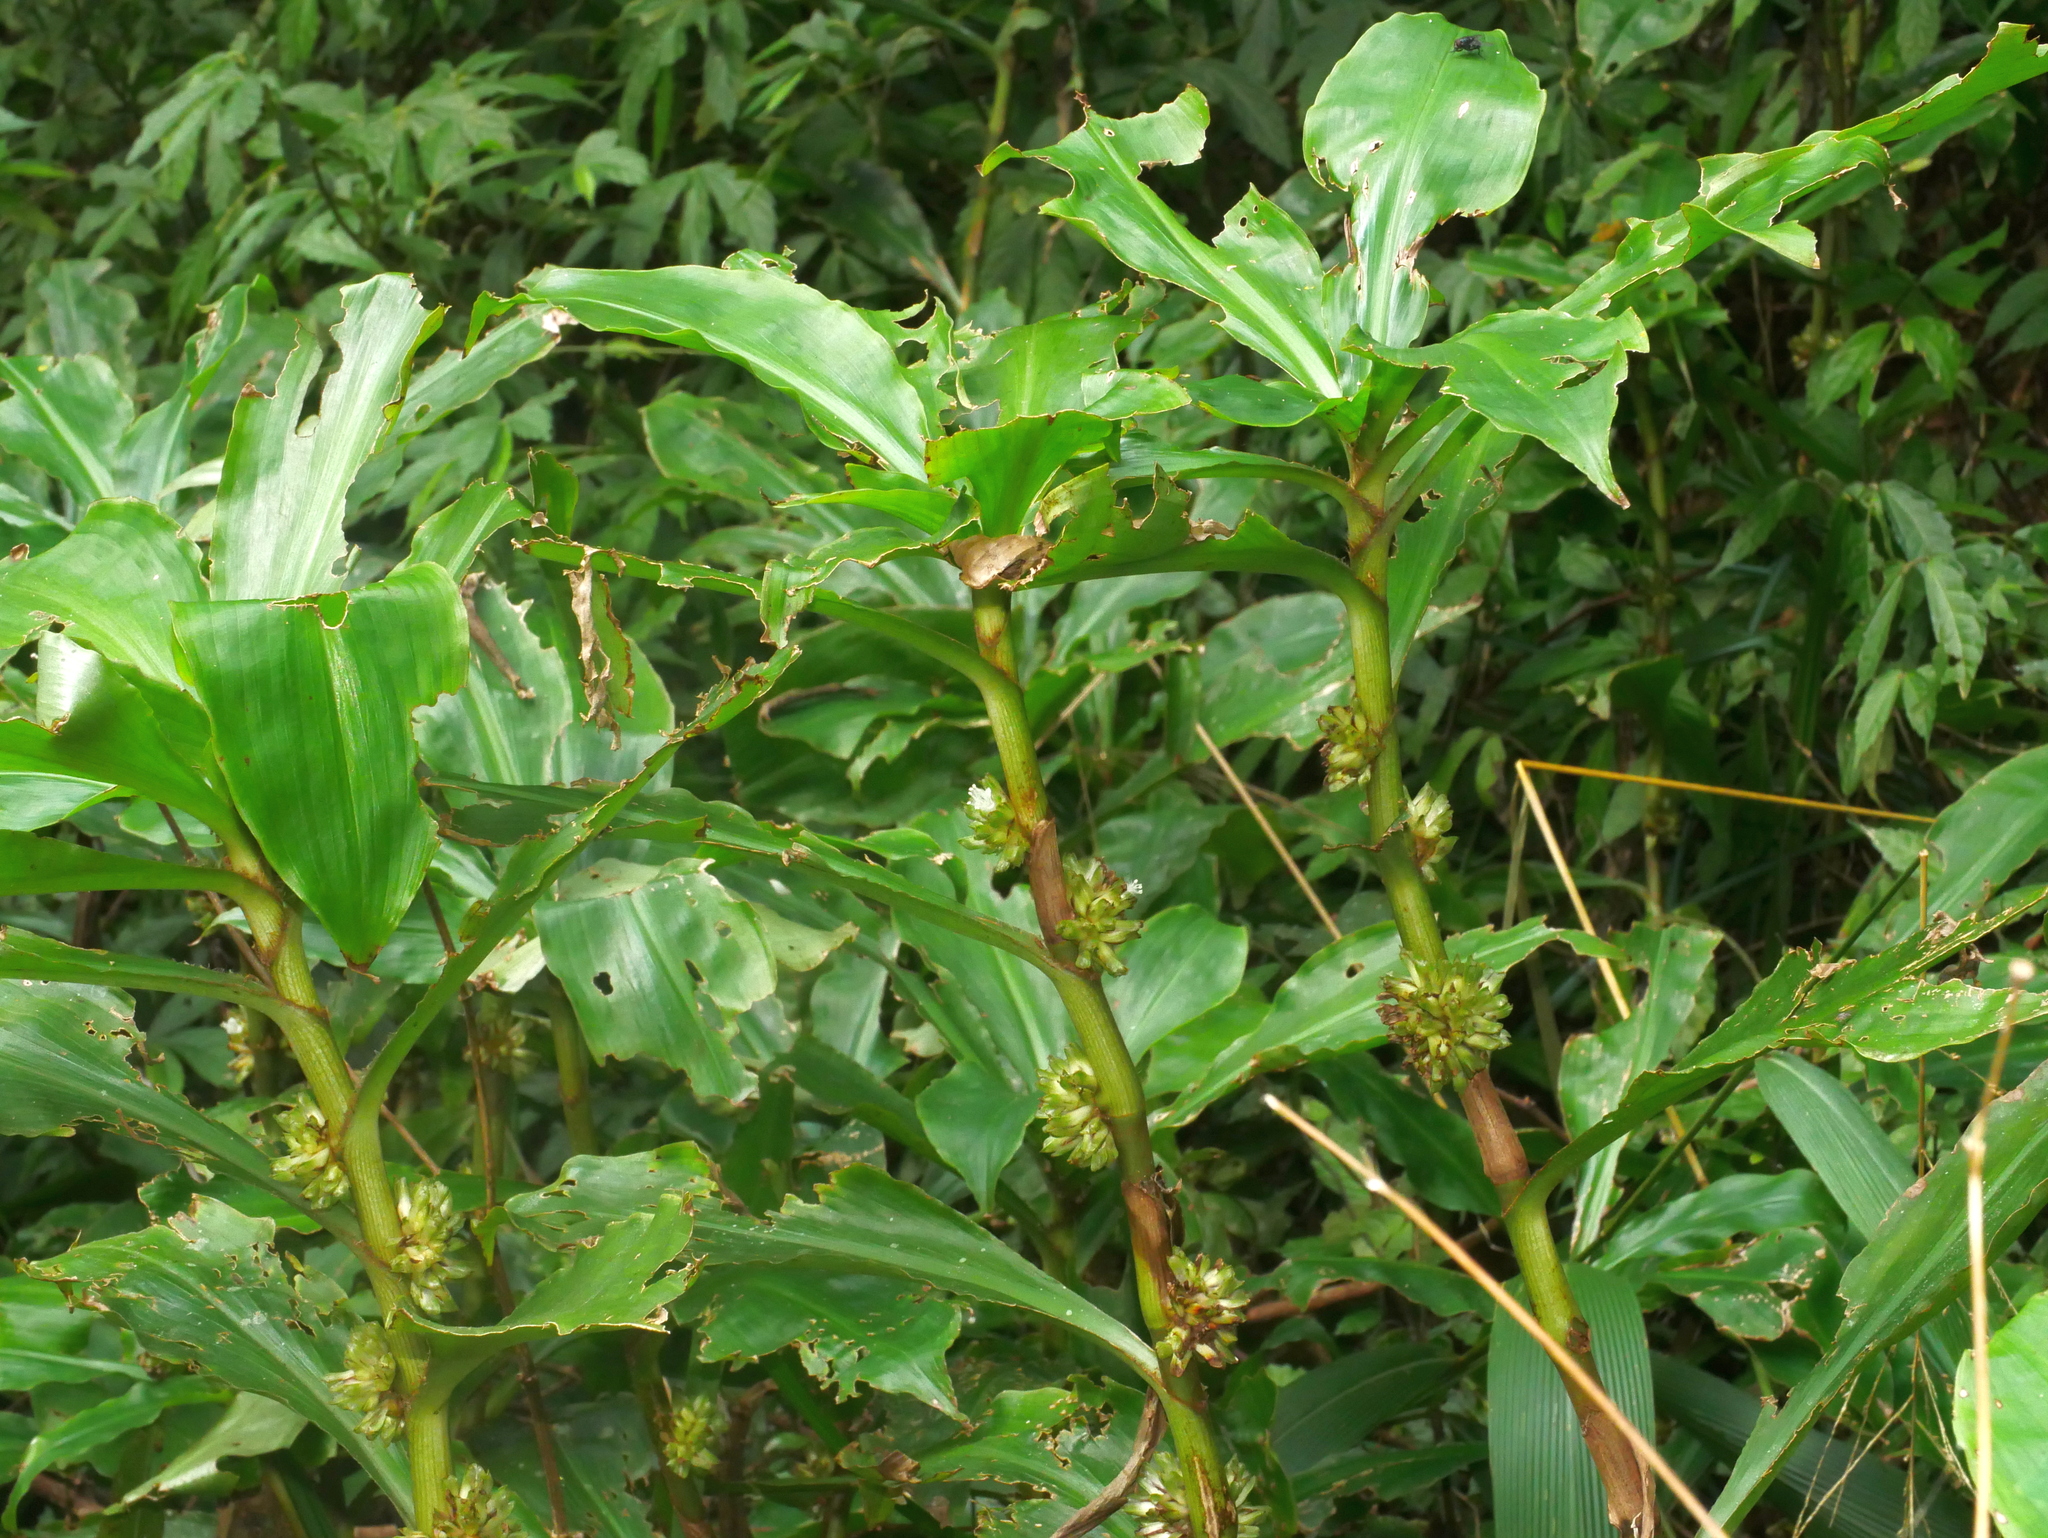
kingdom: Plantae
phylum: Tracheophyta
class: Liliopsida
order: Commelinales
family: Commelinaceae
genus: Amischotolype
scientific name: Amischotolype glabrata
